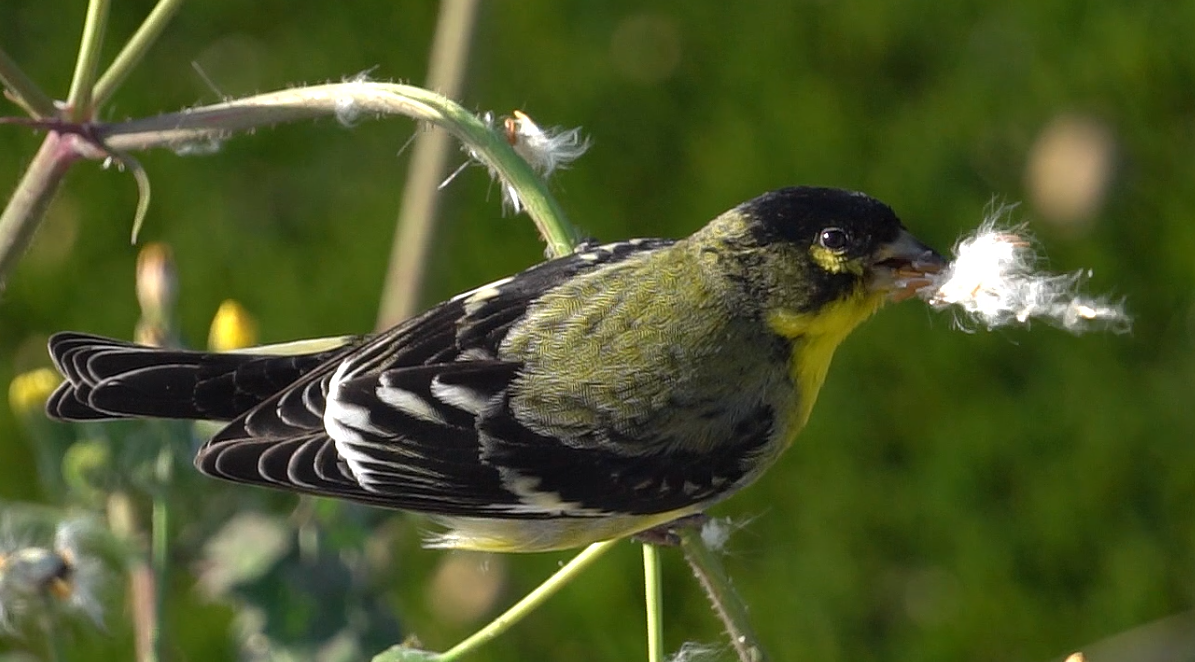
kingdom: Animalia
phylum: Chordata
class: Aves
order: Passeriformes
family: Fringillidae
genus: Spinus
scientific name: Spinus psaltria
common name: Lesser goldfinch
